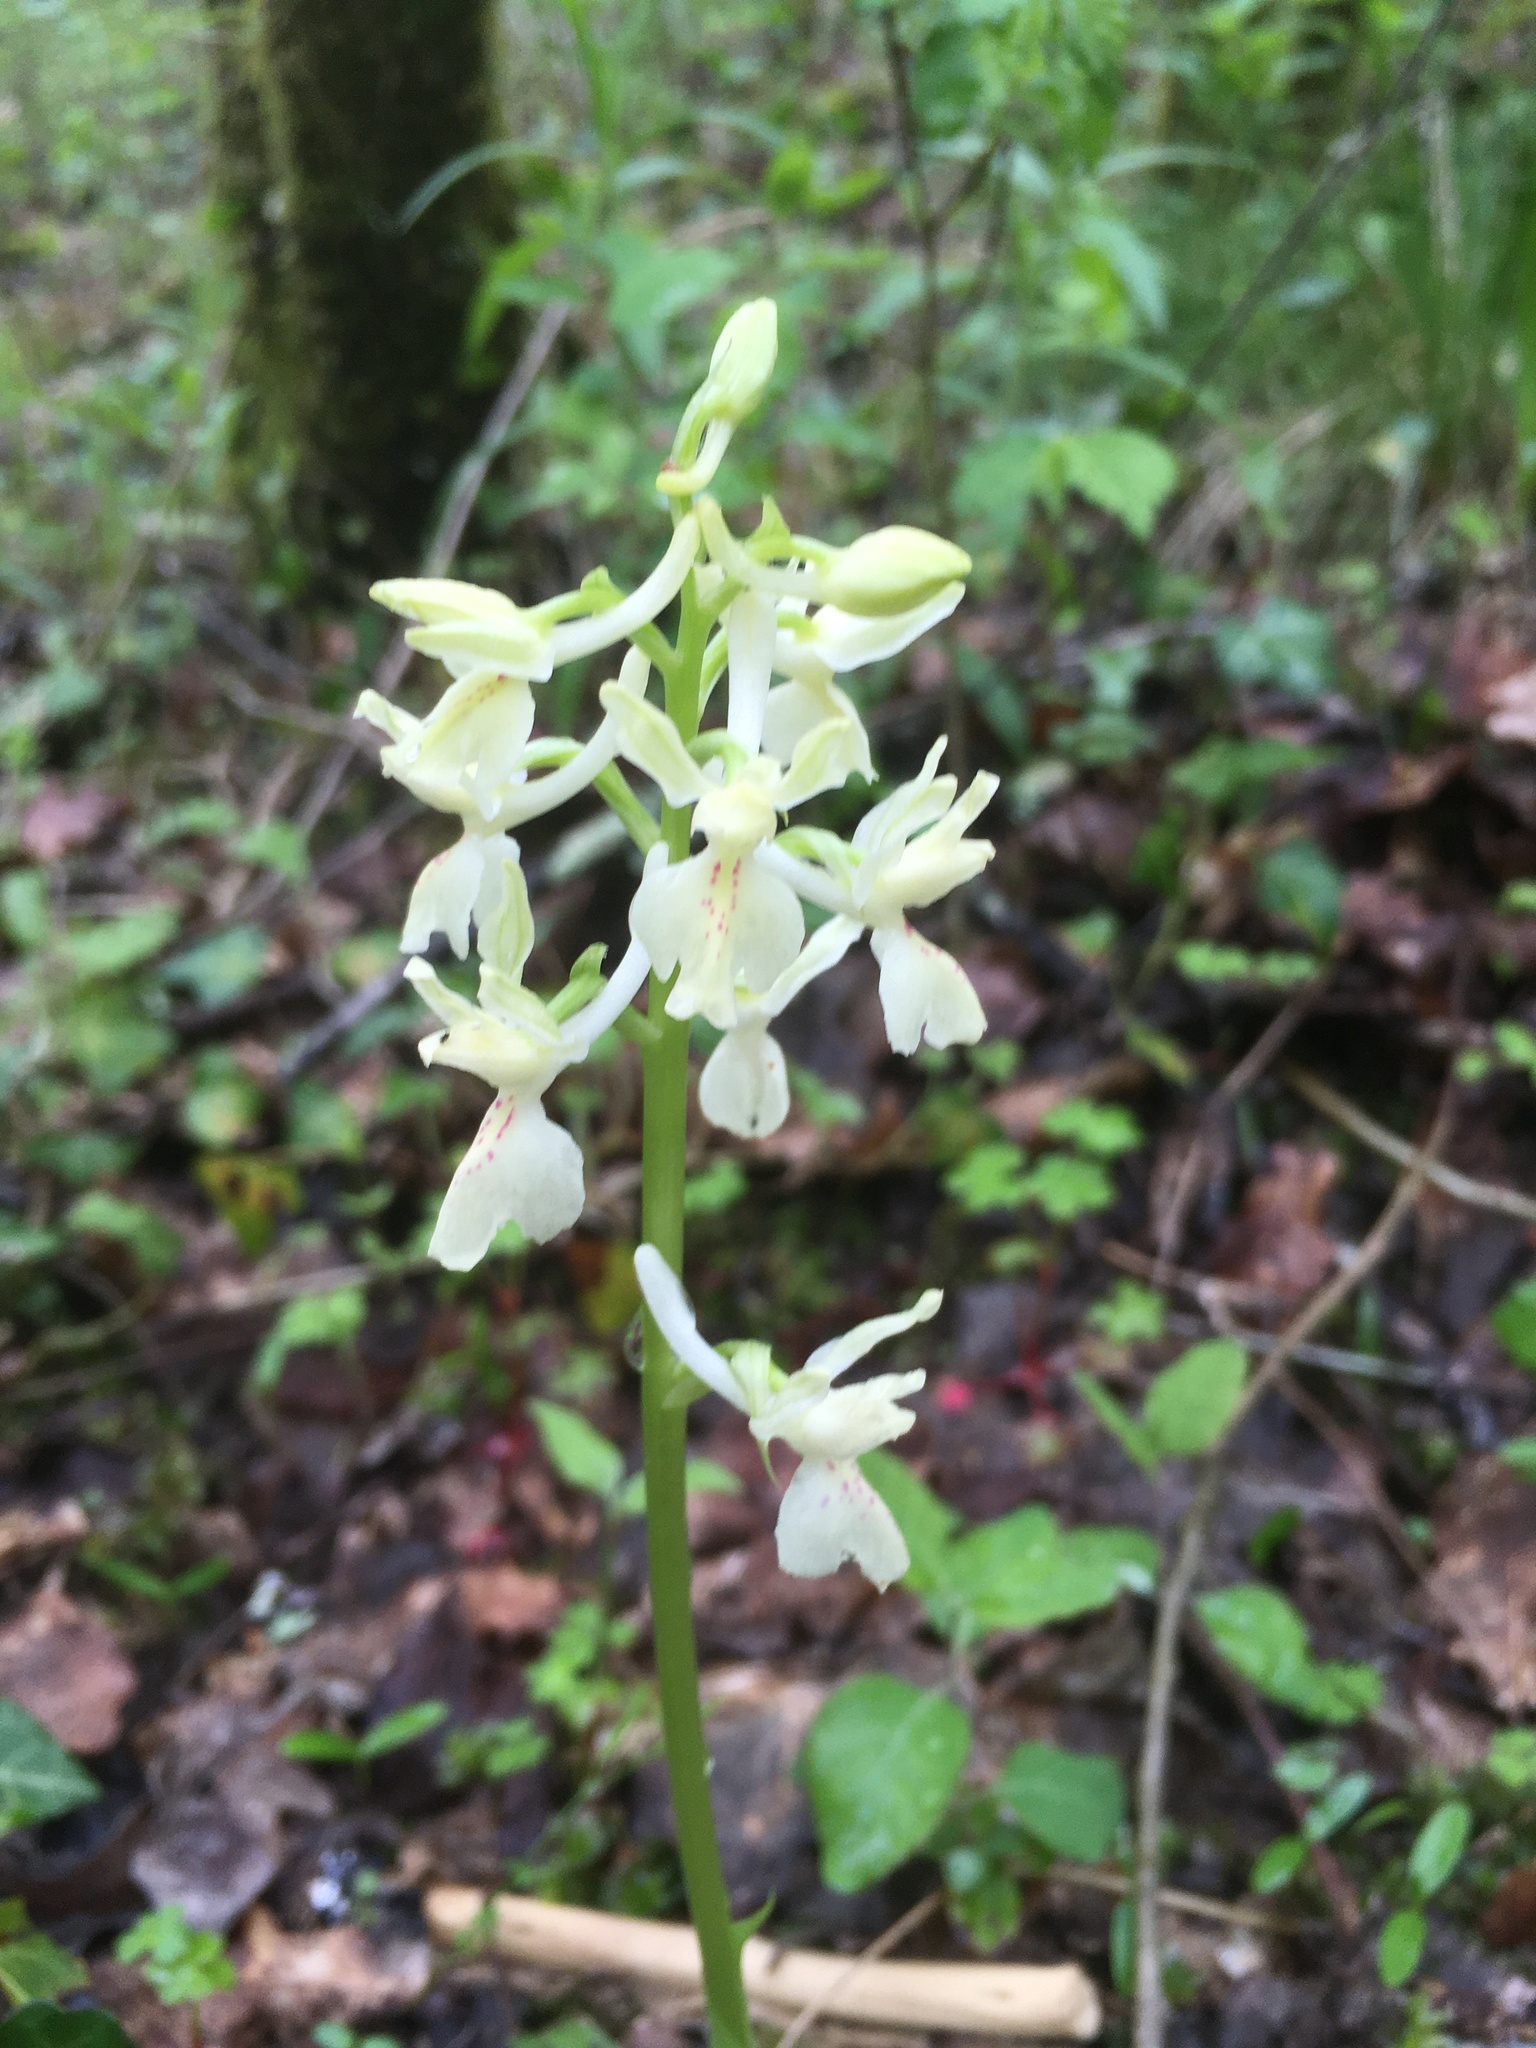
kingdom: Plantae
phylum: Tracheophyta
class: Liliopsida
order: Asparagales
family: Orchidaceae
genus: Orchis
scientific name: Orchis provincialis
